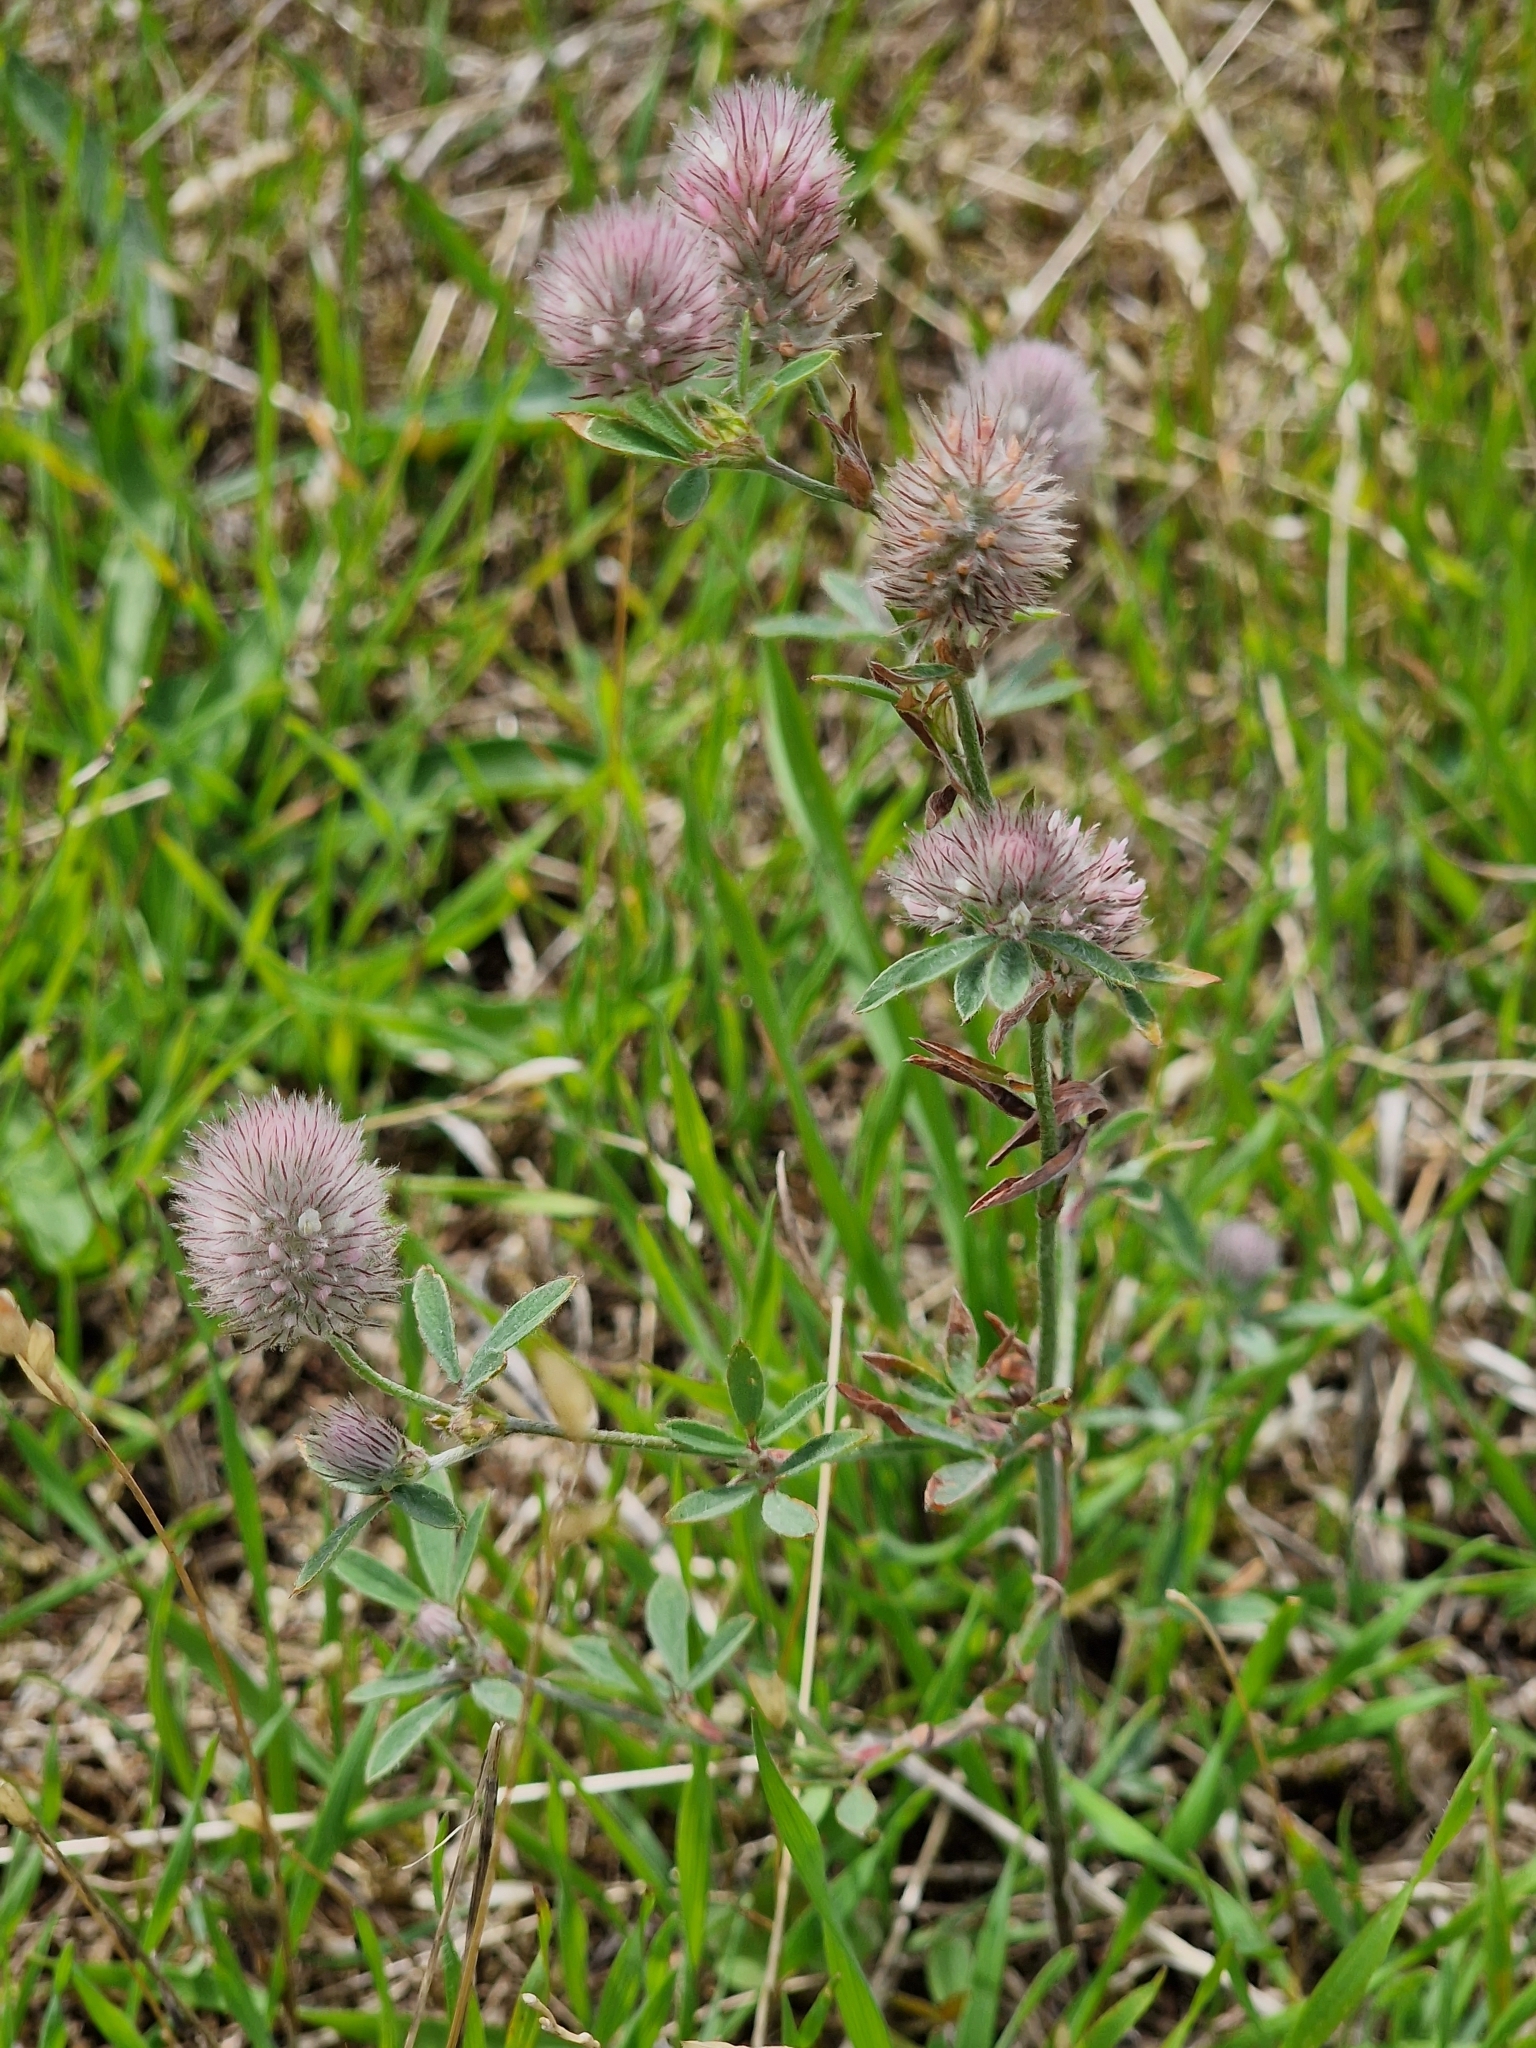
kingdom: Plantae
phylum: Tracheophyta
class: Magnoliopsida
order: Fabales
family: Fabaceae
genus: Trifolium
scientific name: Trifolium arvense
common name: Hare's-foot clover
